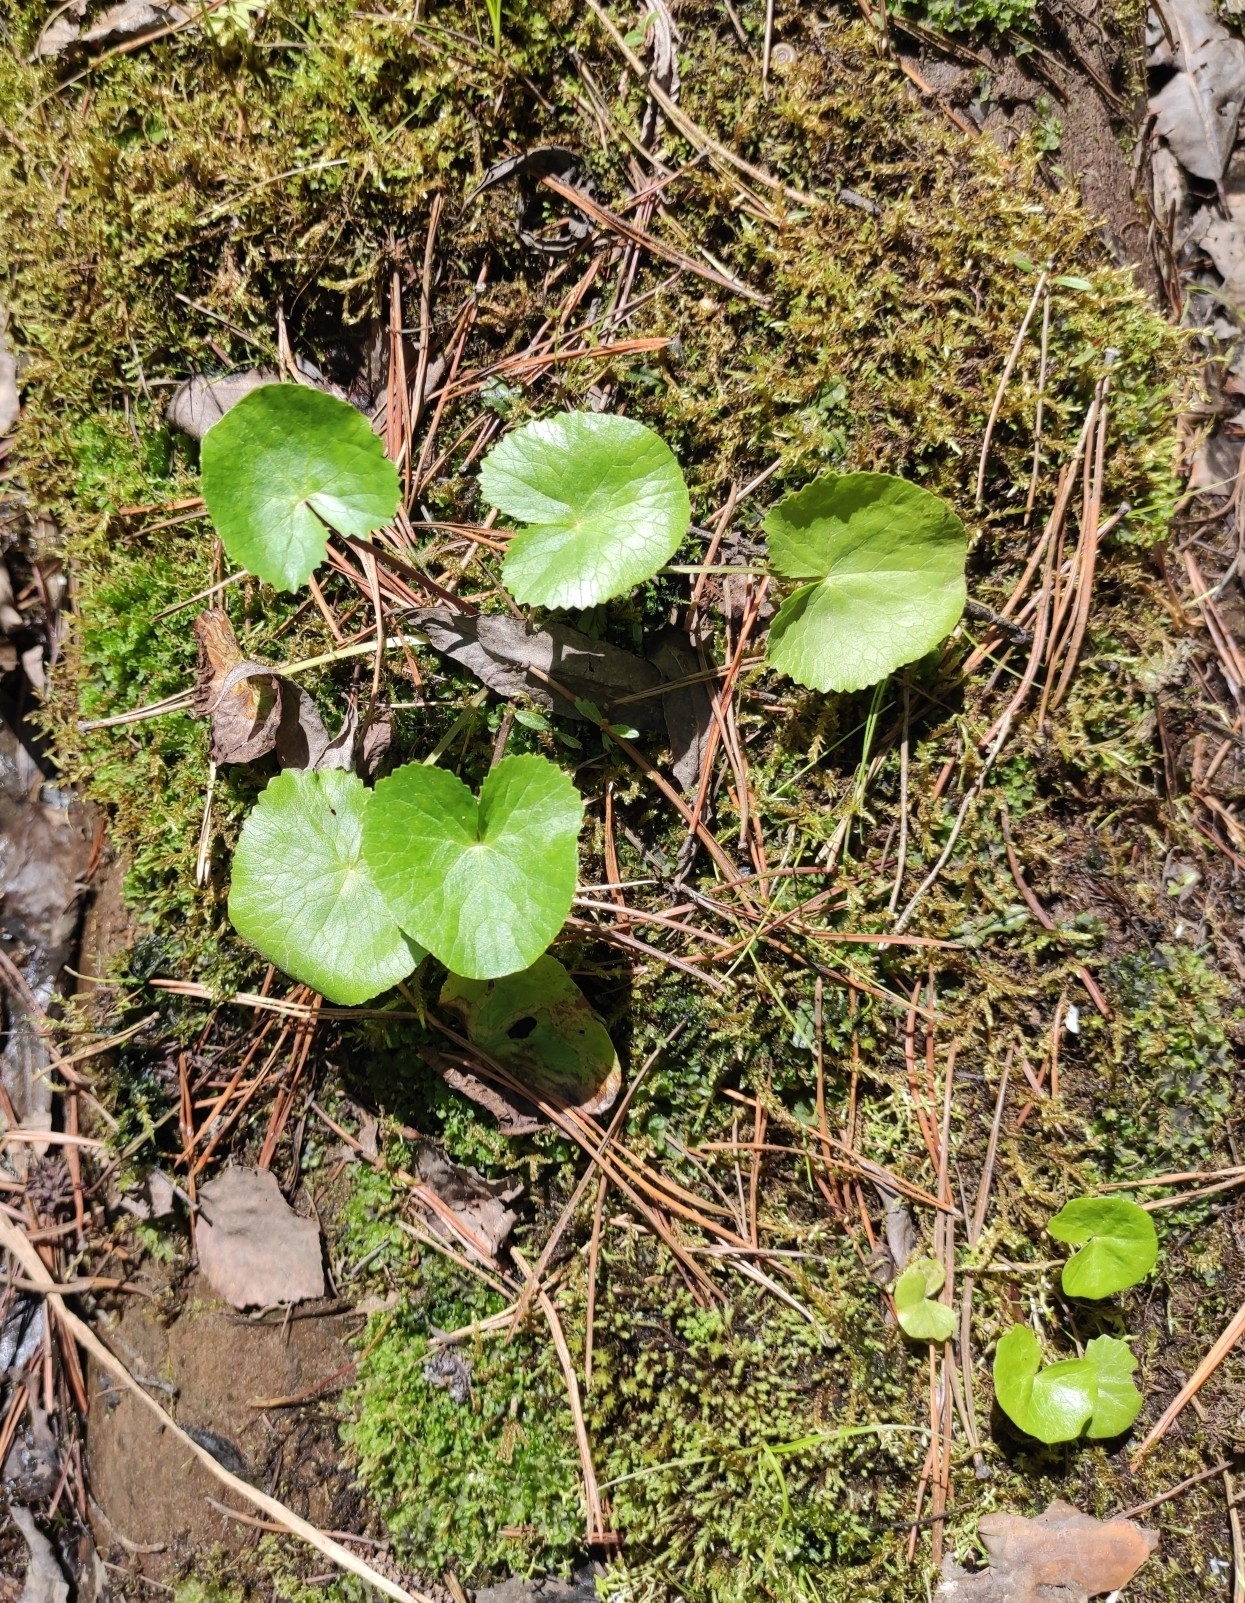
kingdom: Plantae
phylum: Tracheophyta
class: Magnoliopsida
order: Ranunculales
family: Ranunculaceae
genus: Caltha
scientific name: Caltha palustris
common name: Marsh marigold
